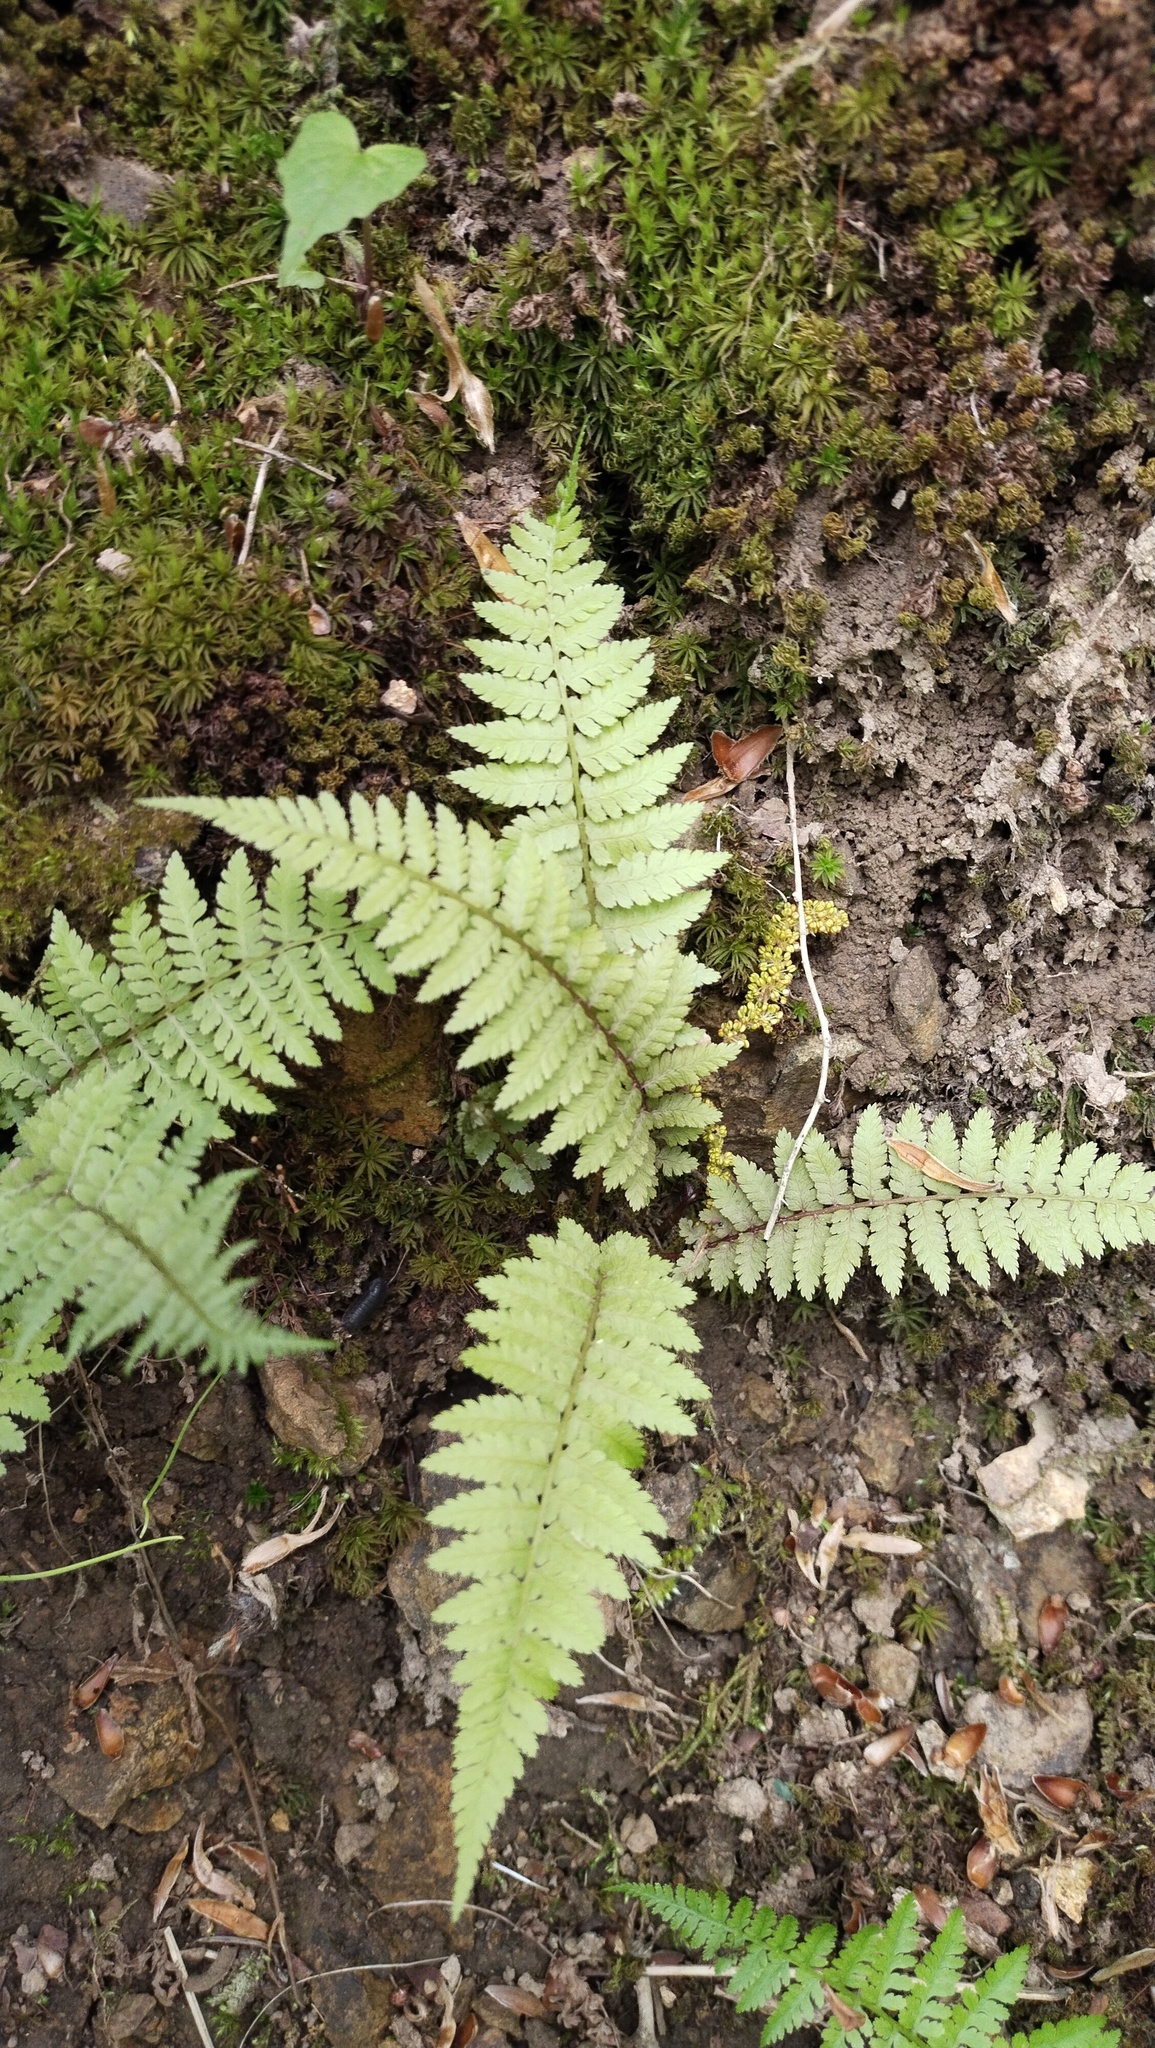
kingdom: Plantae
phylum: Tracheophyta
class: Polypodiopsida
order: Polypodiales
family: Athyriaceae
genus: Athyrium
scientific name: Athyrium filix-femina
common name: Lady fern
